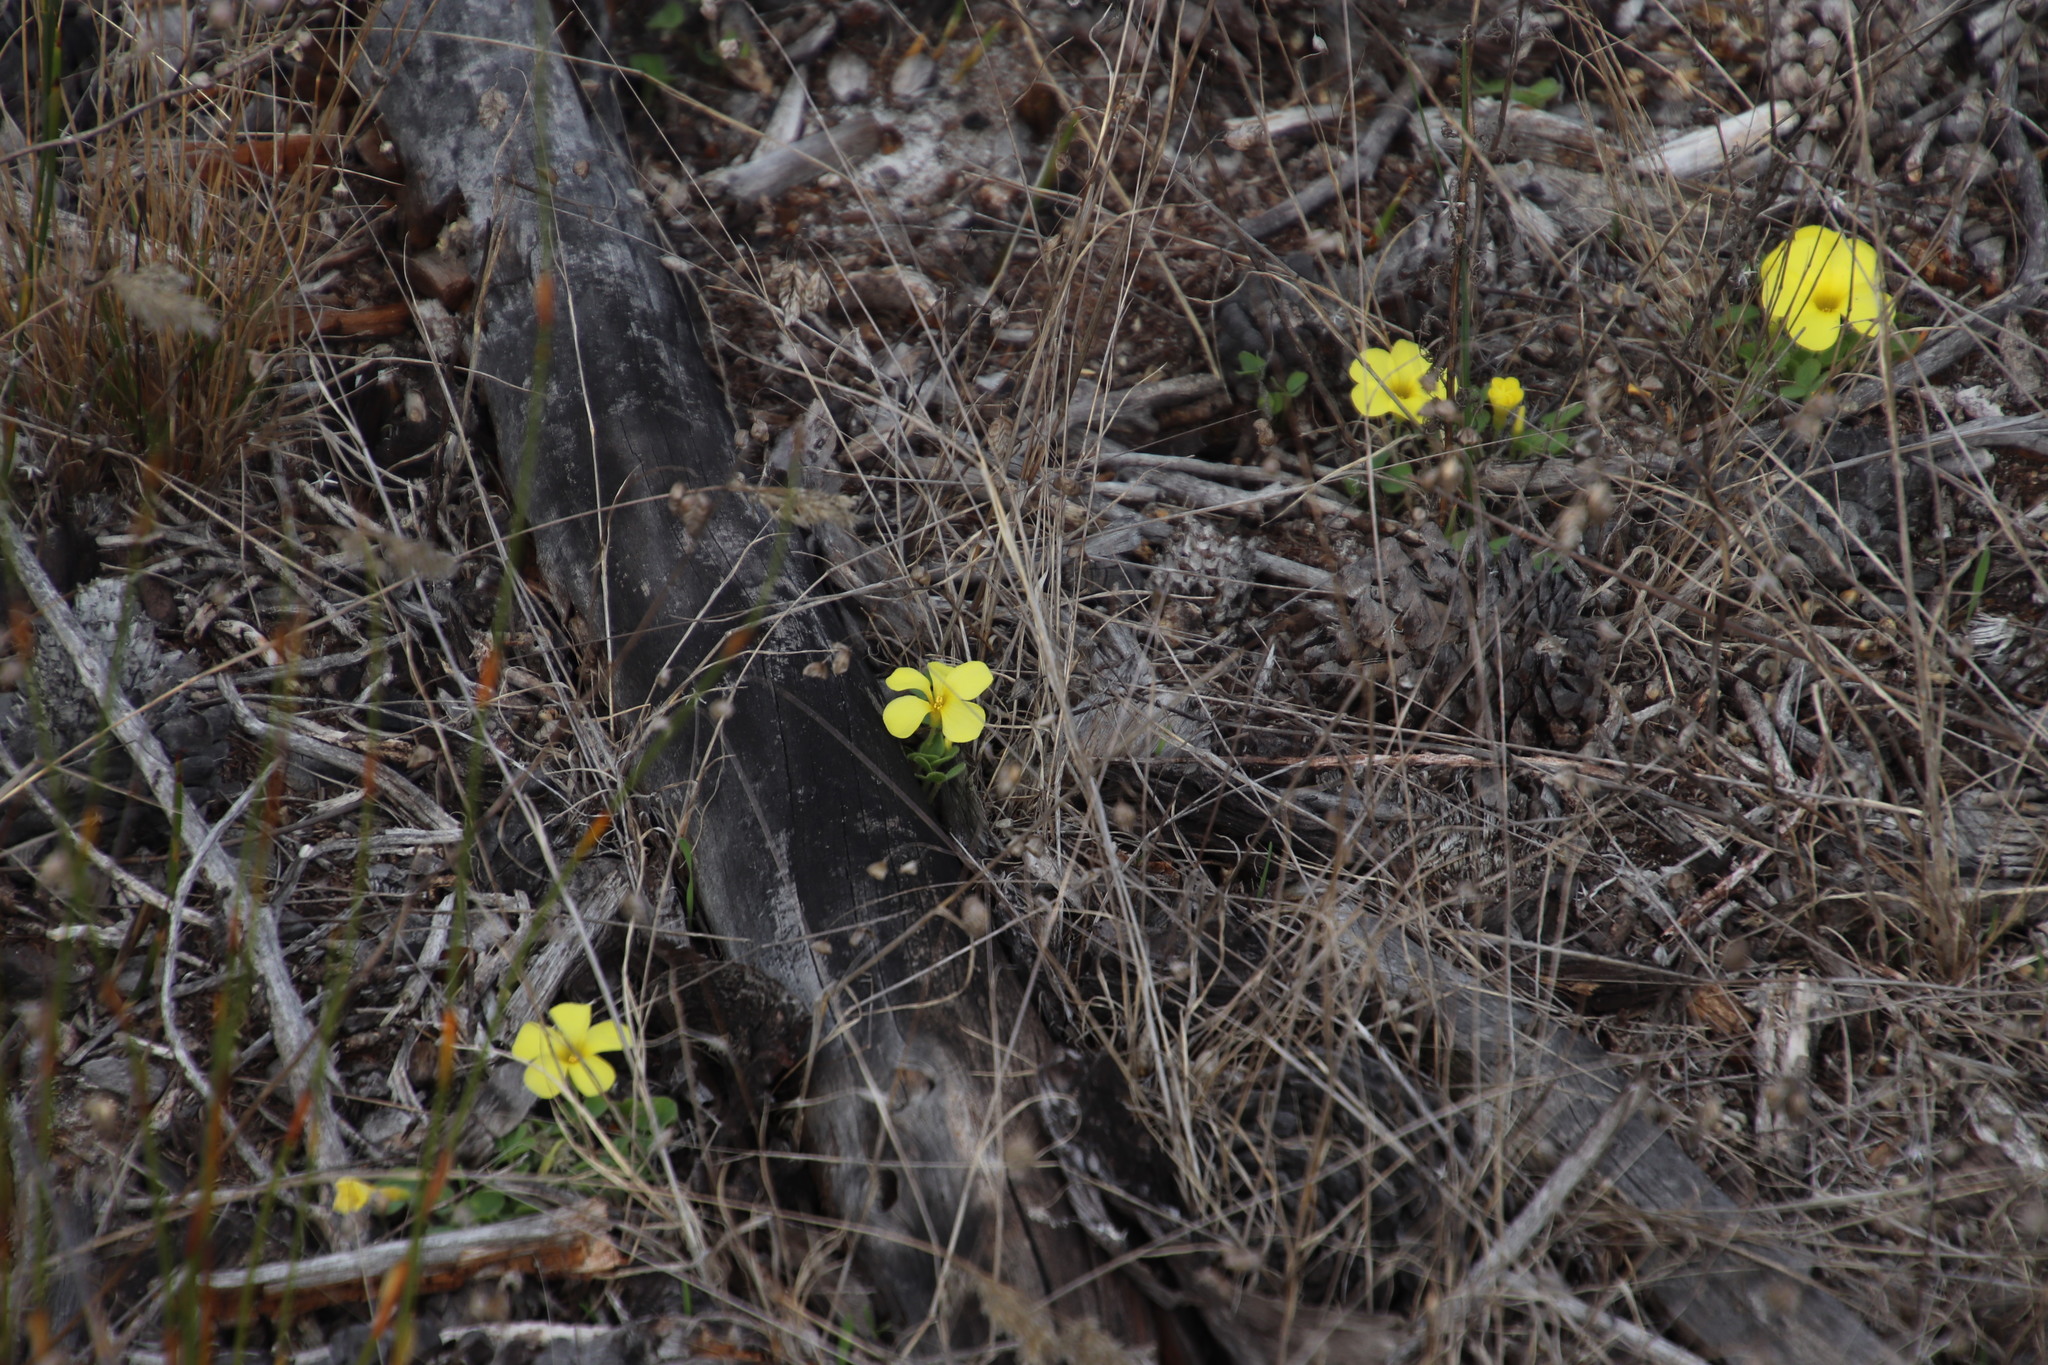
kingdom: Plantae
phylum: Tracheophyta
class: Magnoliopsida
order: Oxalidales
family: Oxalidaceae
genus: Oxalis
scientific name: Oxalis luteola
